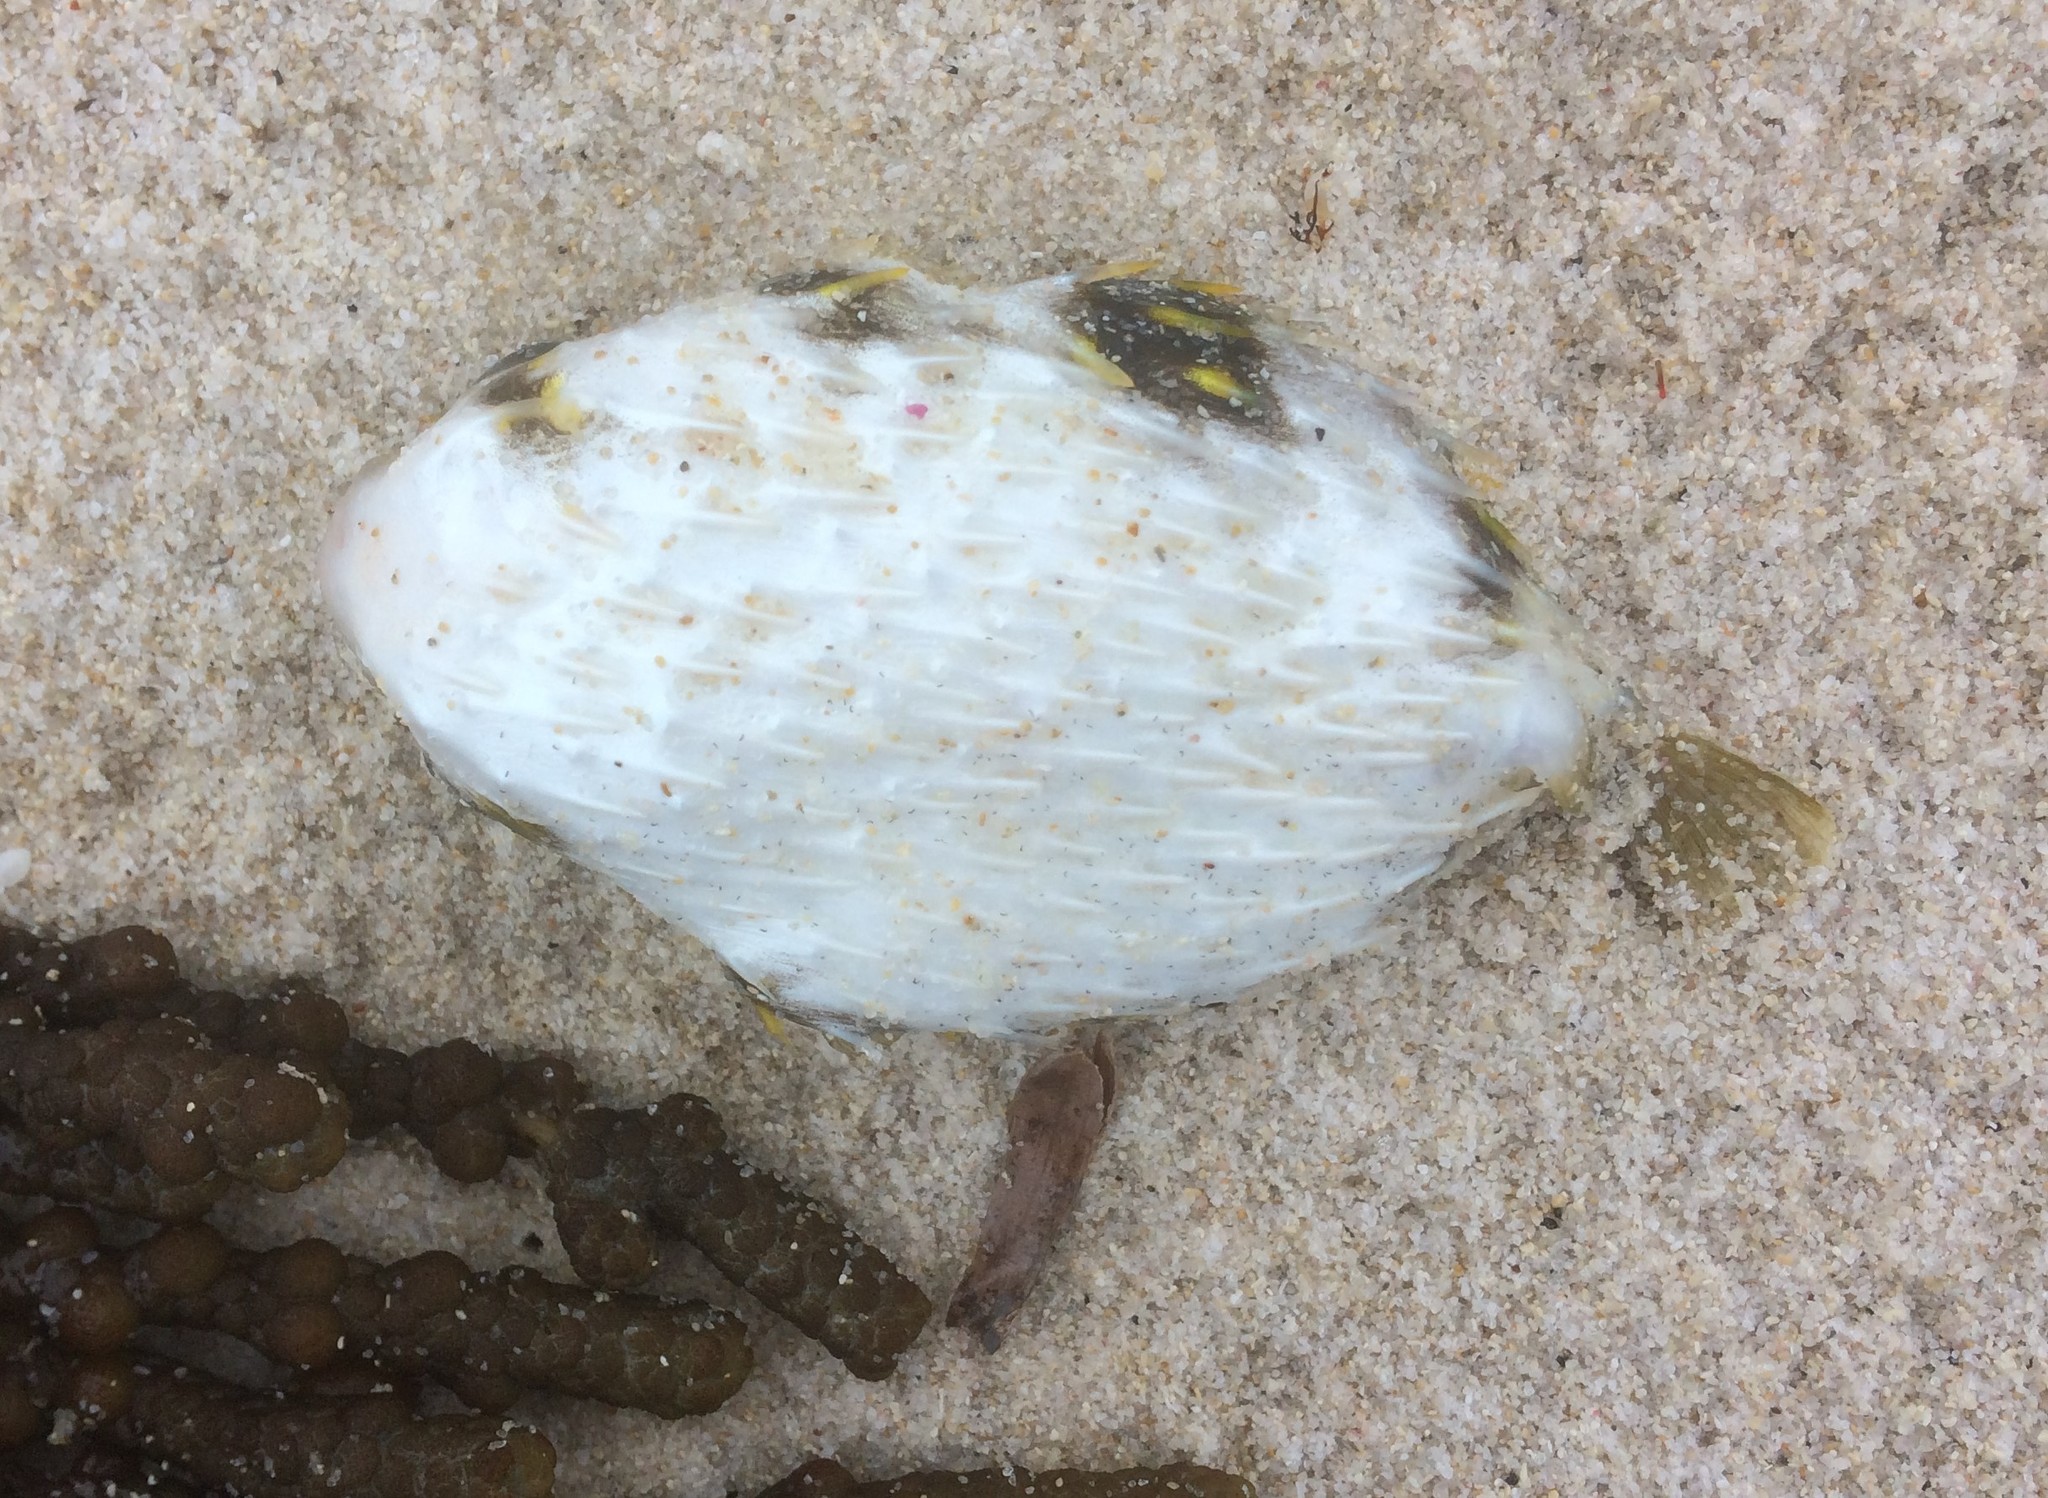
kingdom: Animalia
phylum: Chordata
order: Tetraodontiformes
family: Diodontidae
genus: Diodon
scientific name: Diodon nicthemerus
